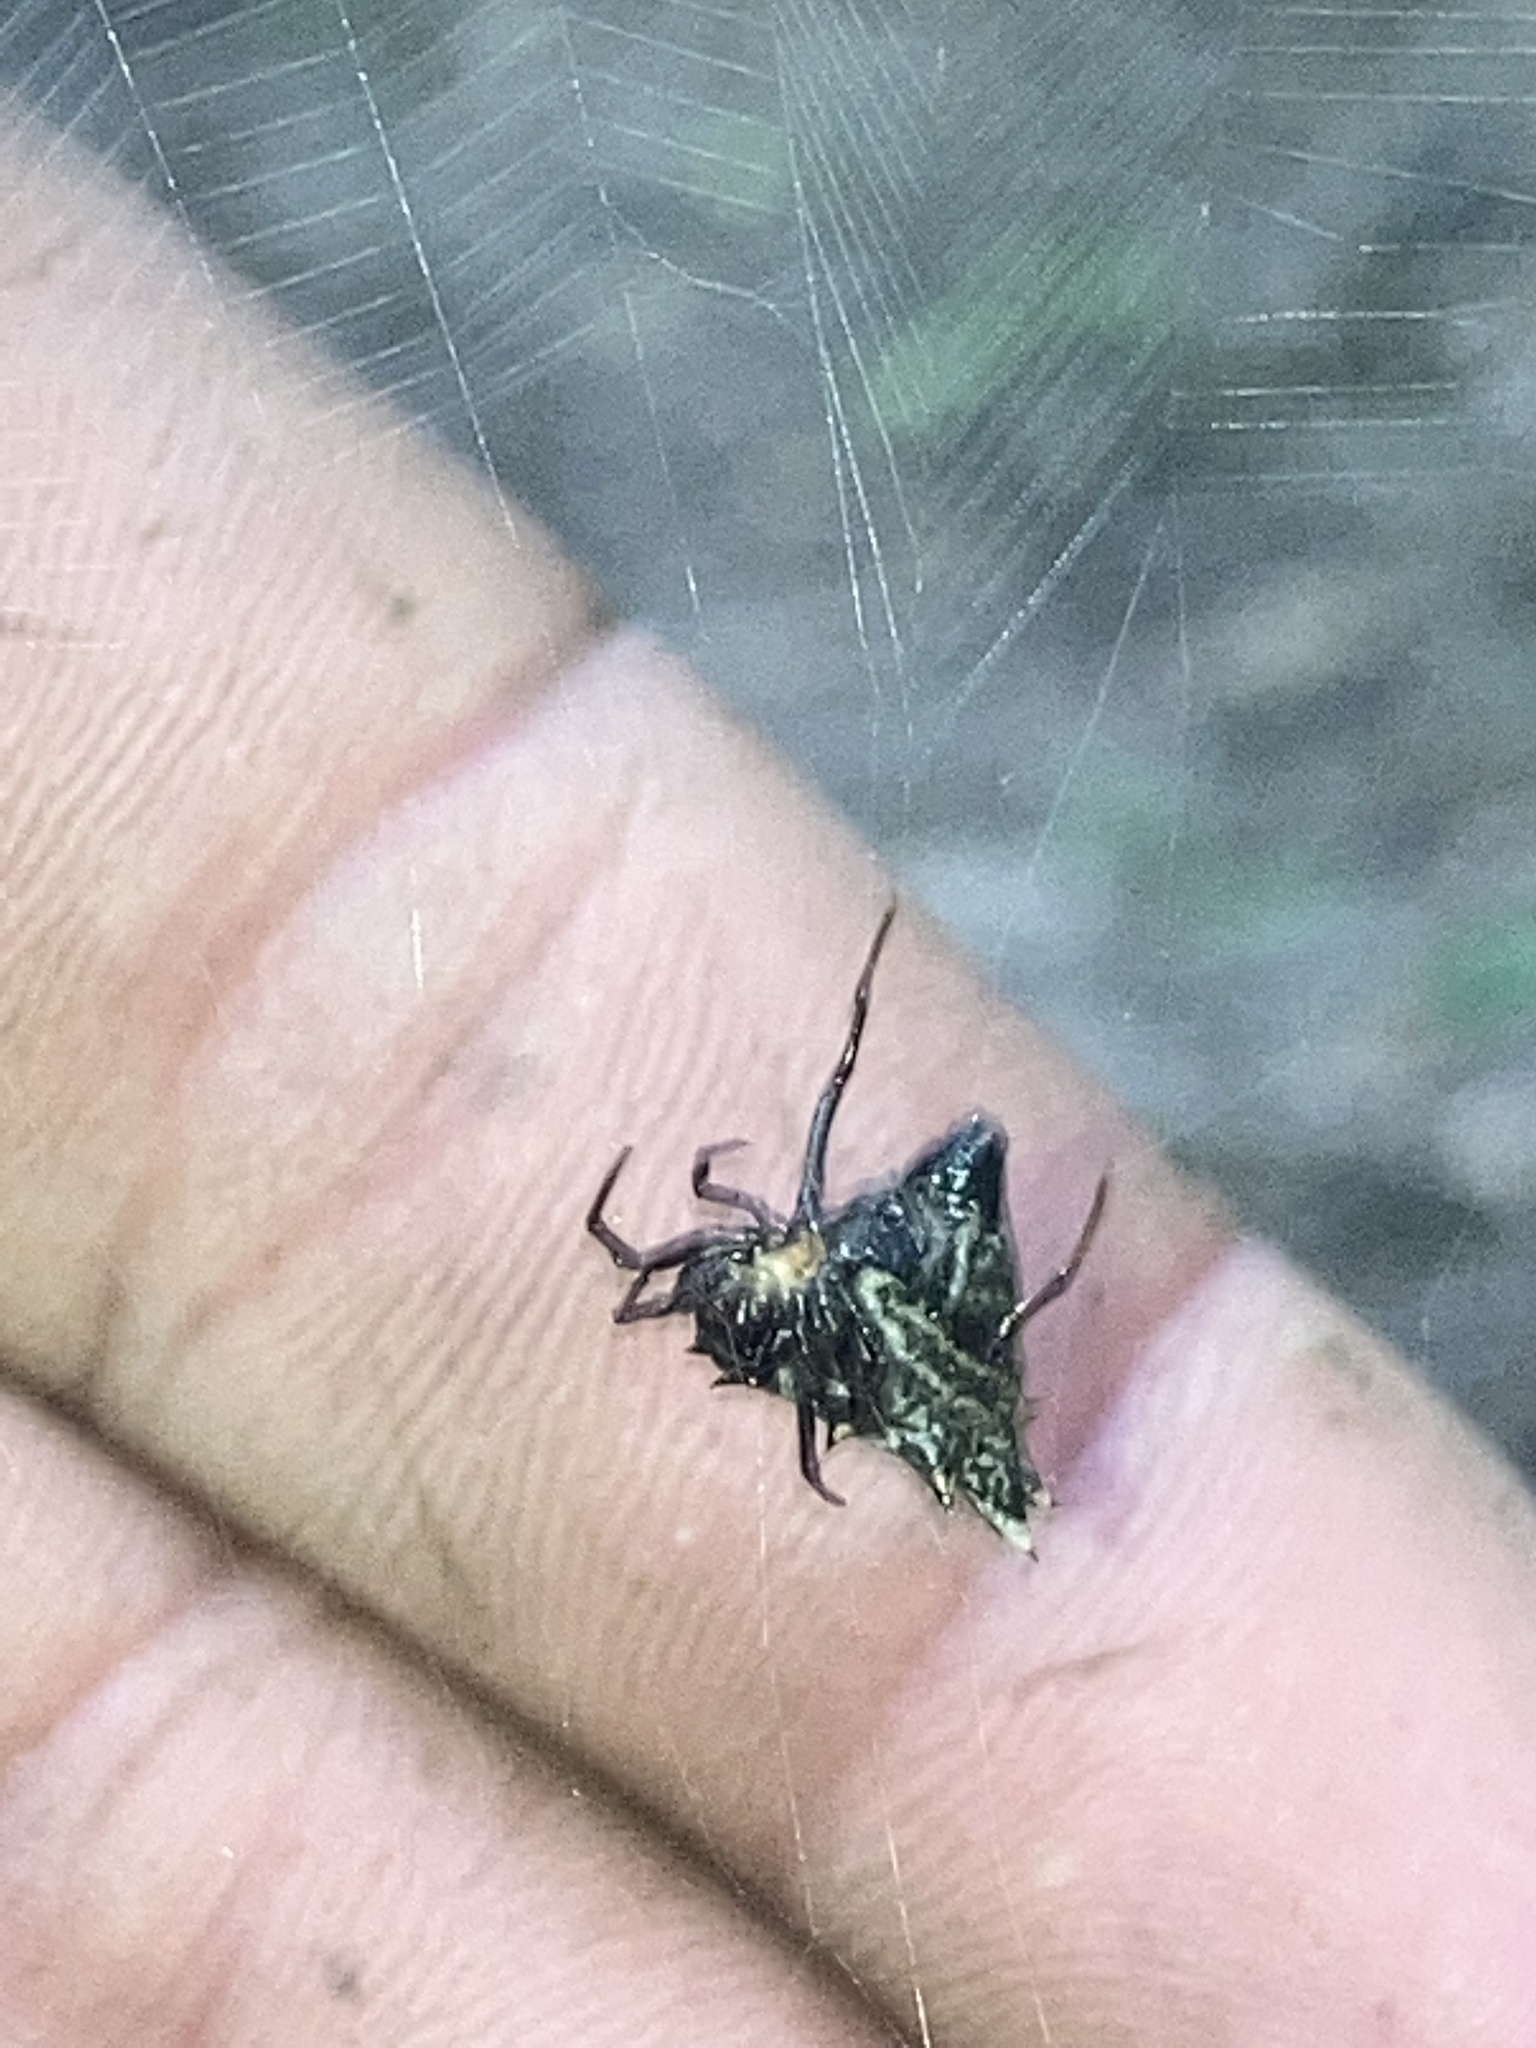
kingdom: Animalia
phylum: Arthropoda
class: Arachnida
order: Araneae
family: Araneidae
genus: Micrathena
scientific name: Micrathena gracilis
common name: Orb weavers
